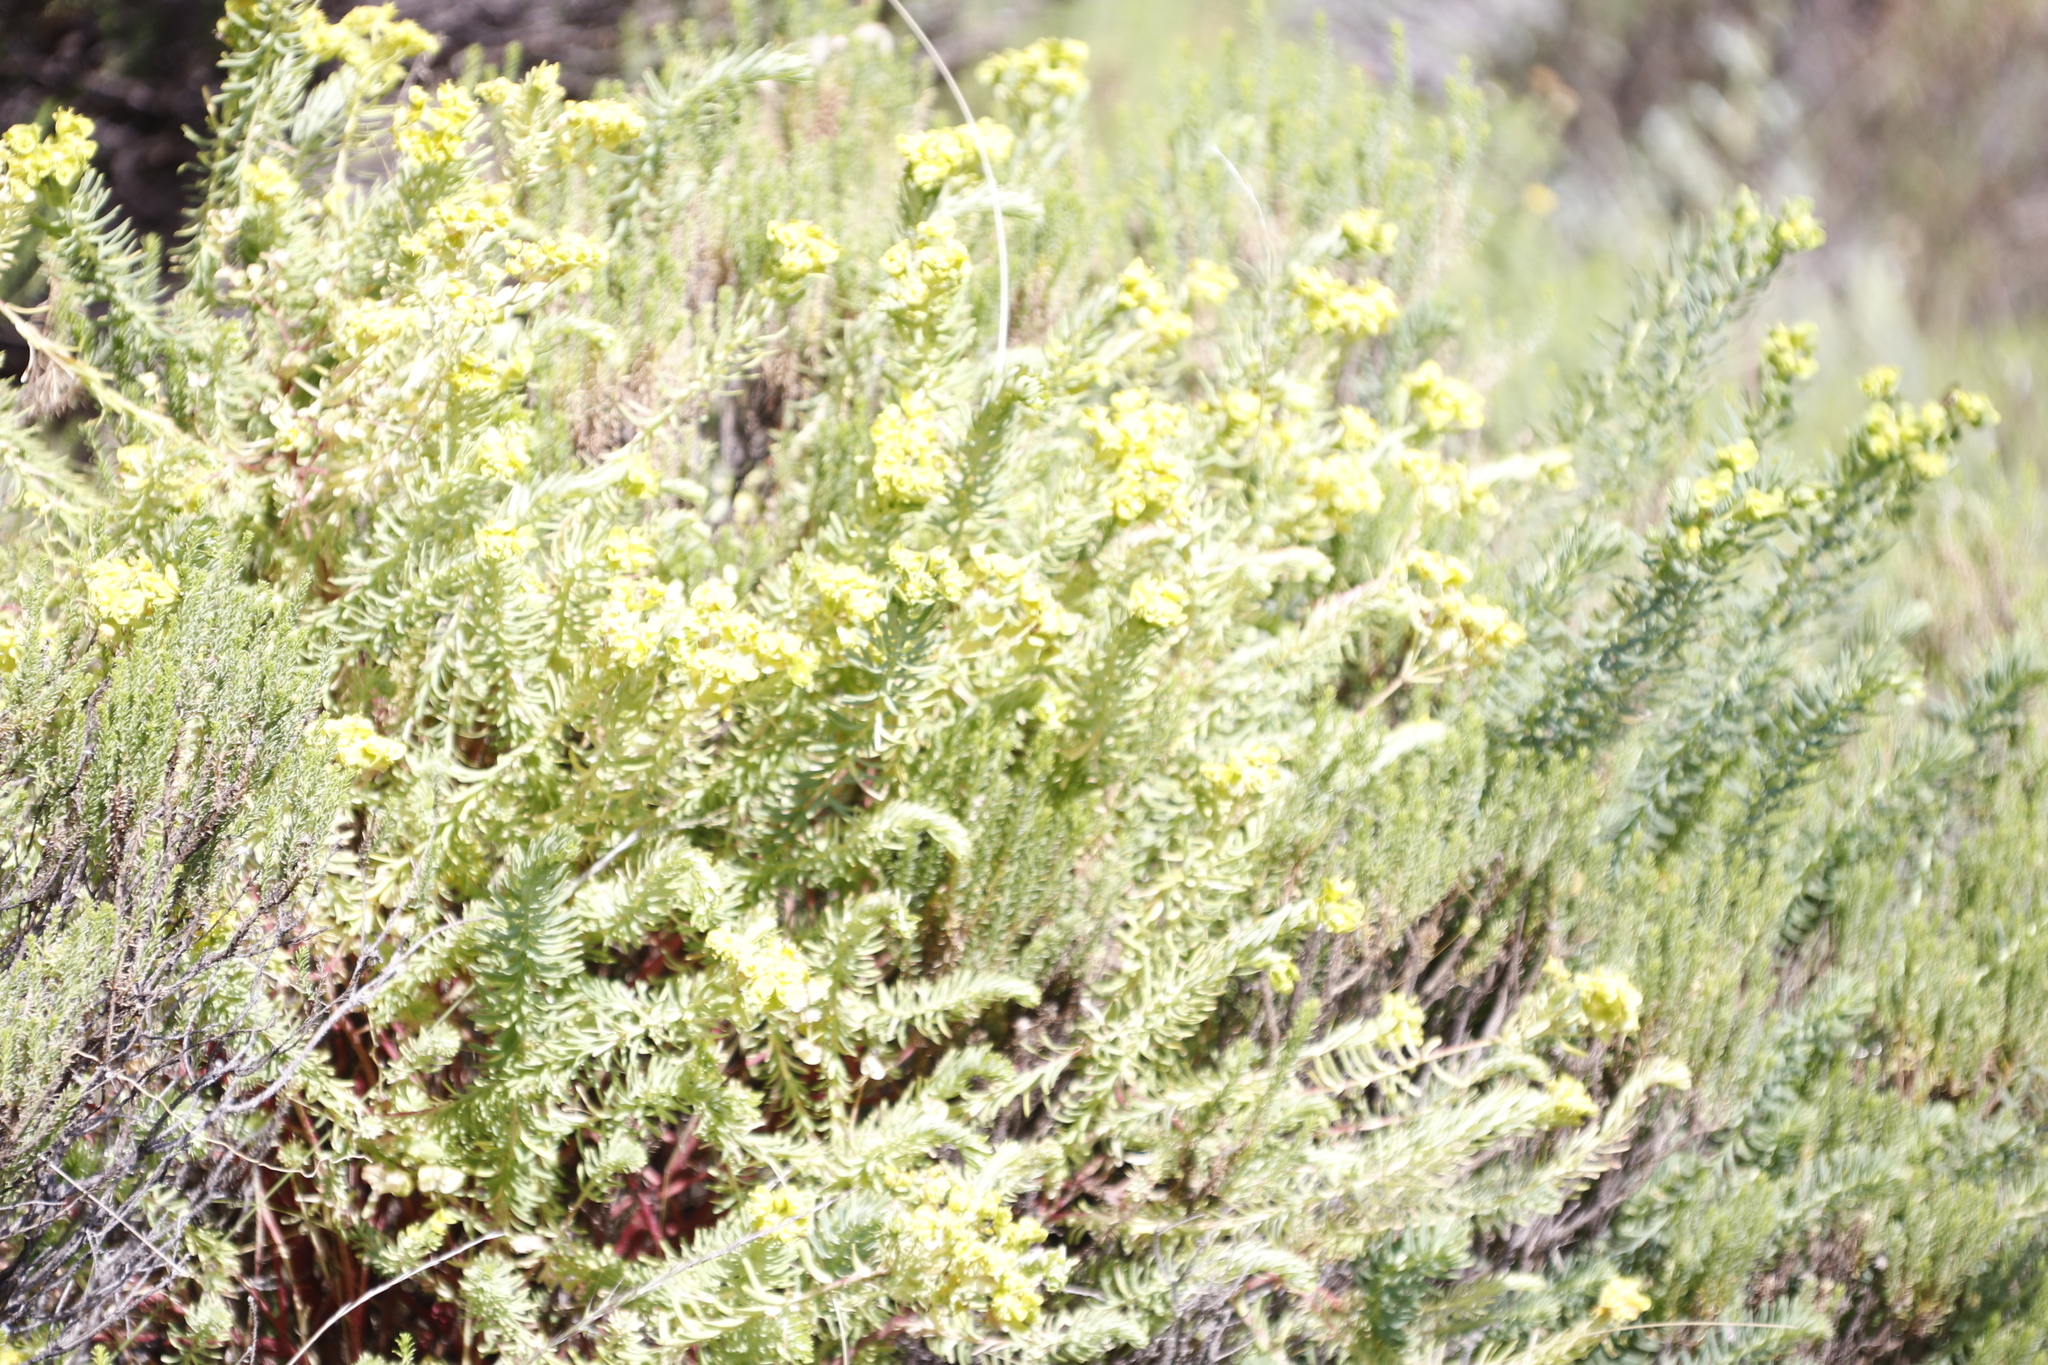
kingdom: Plantae
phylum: Tracheophyta
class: Magnoliopsida
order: Malpighiales
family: Euphorbiaceae
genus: Euphorbia
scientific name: Euphorbia natalensis
